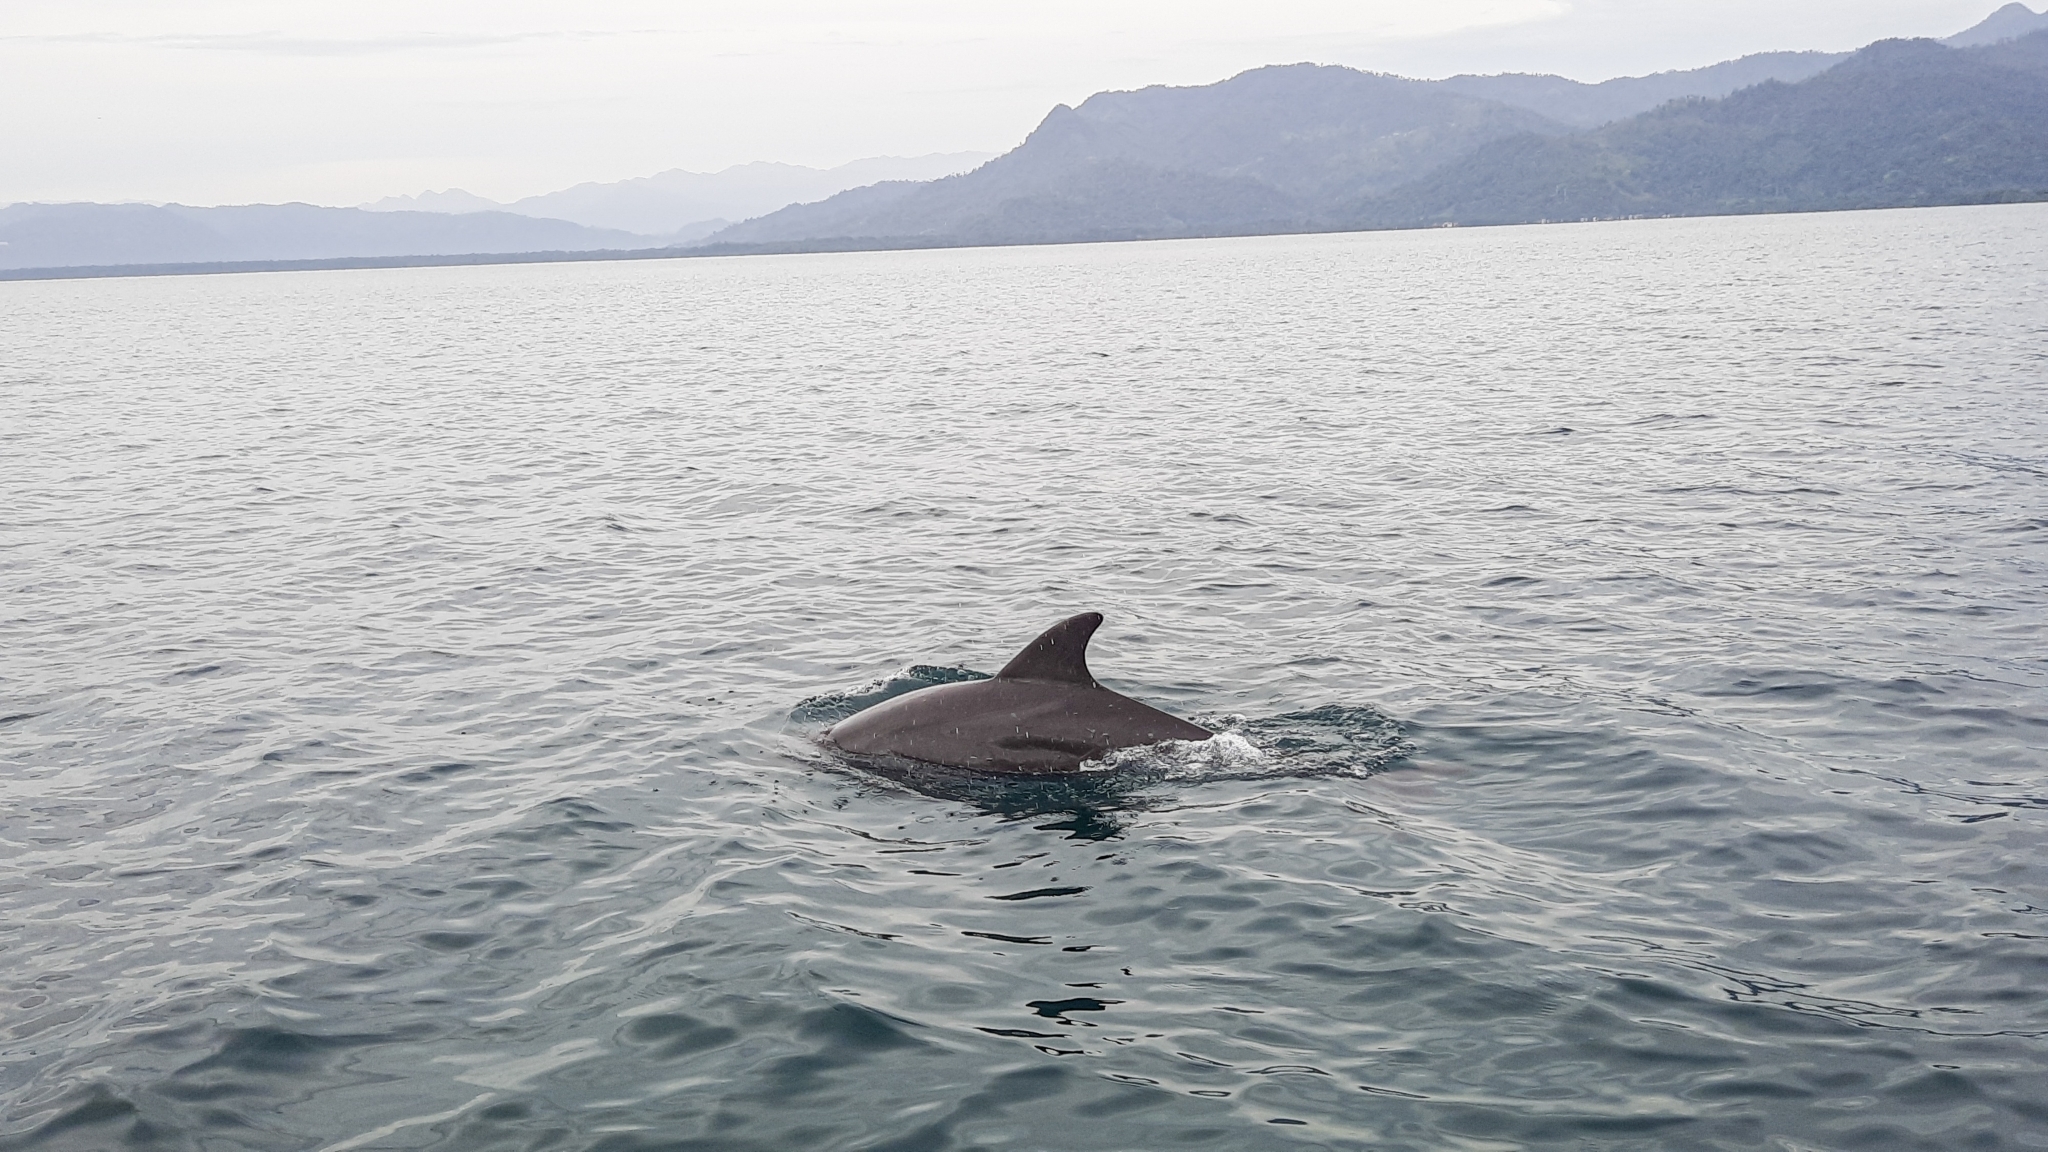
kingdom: Animalia
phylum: Chordata
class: Mammalia
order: Cetacea
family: Delphinidae
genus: Tursiops
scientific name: Tursiops truncatus
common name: Bottlenose dolphin
